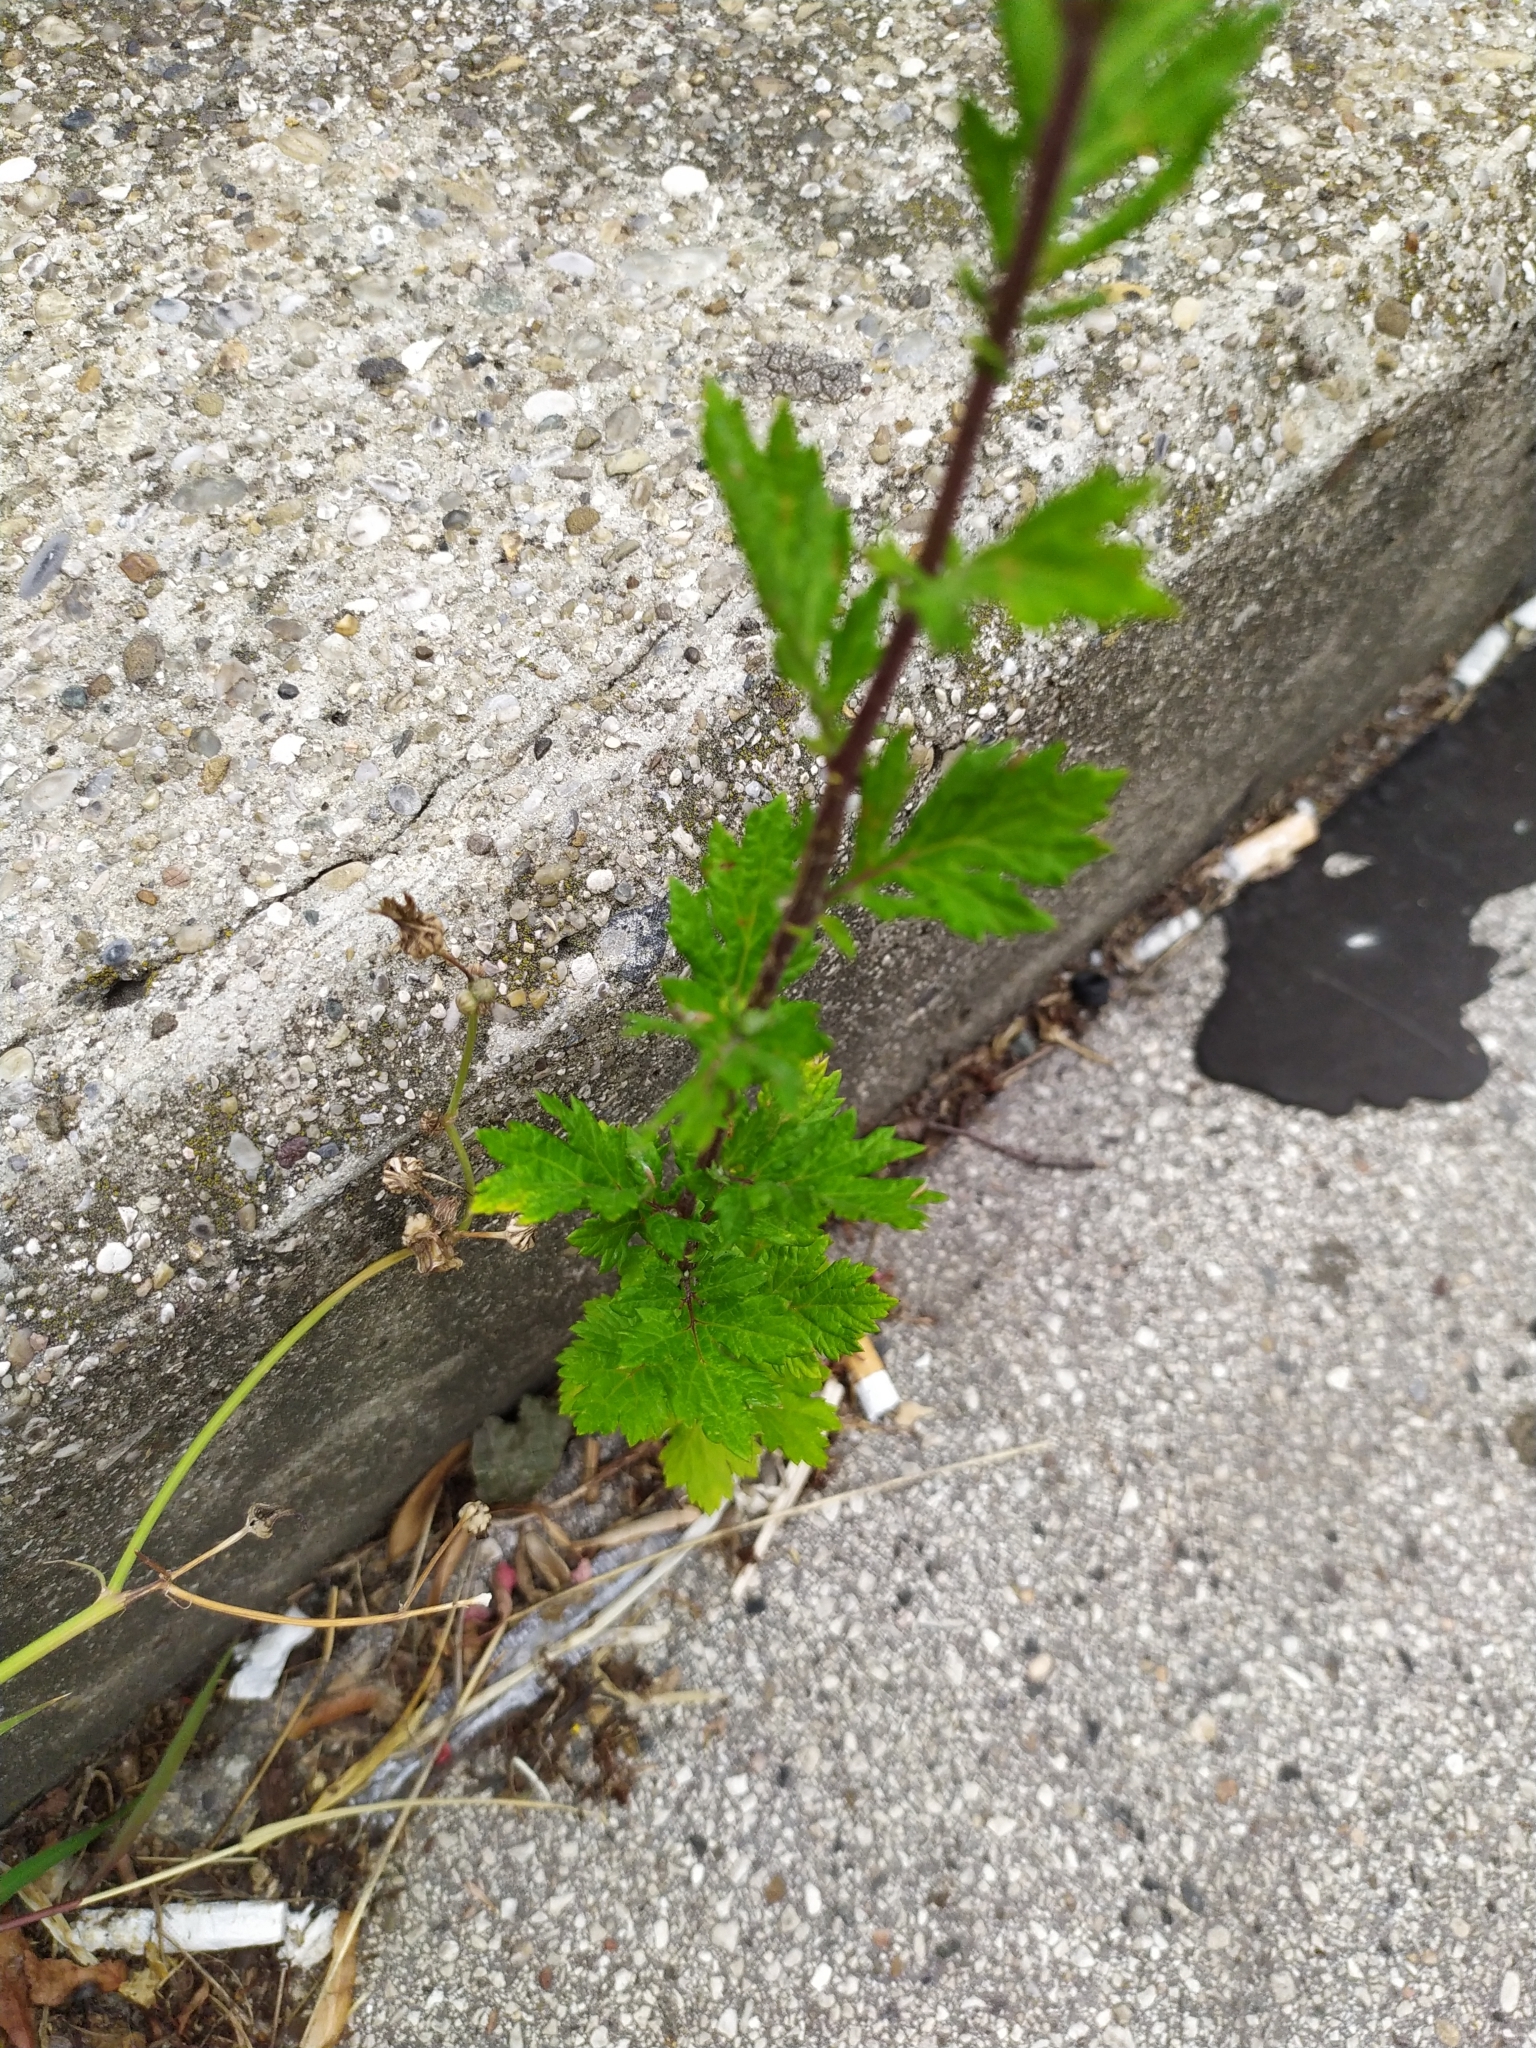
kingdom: Plantae
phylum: Tracheophyta
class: Magnoliopsida
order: Asterales
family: Asteraceae
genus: Artemisia
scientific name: Artemisia vulgaris
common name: Mugwort
